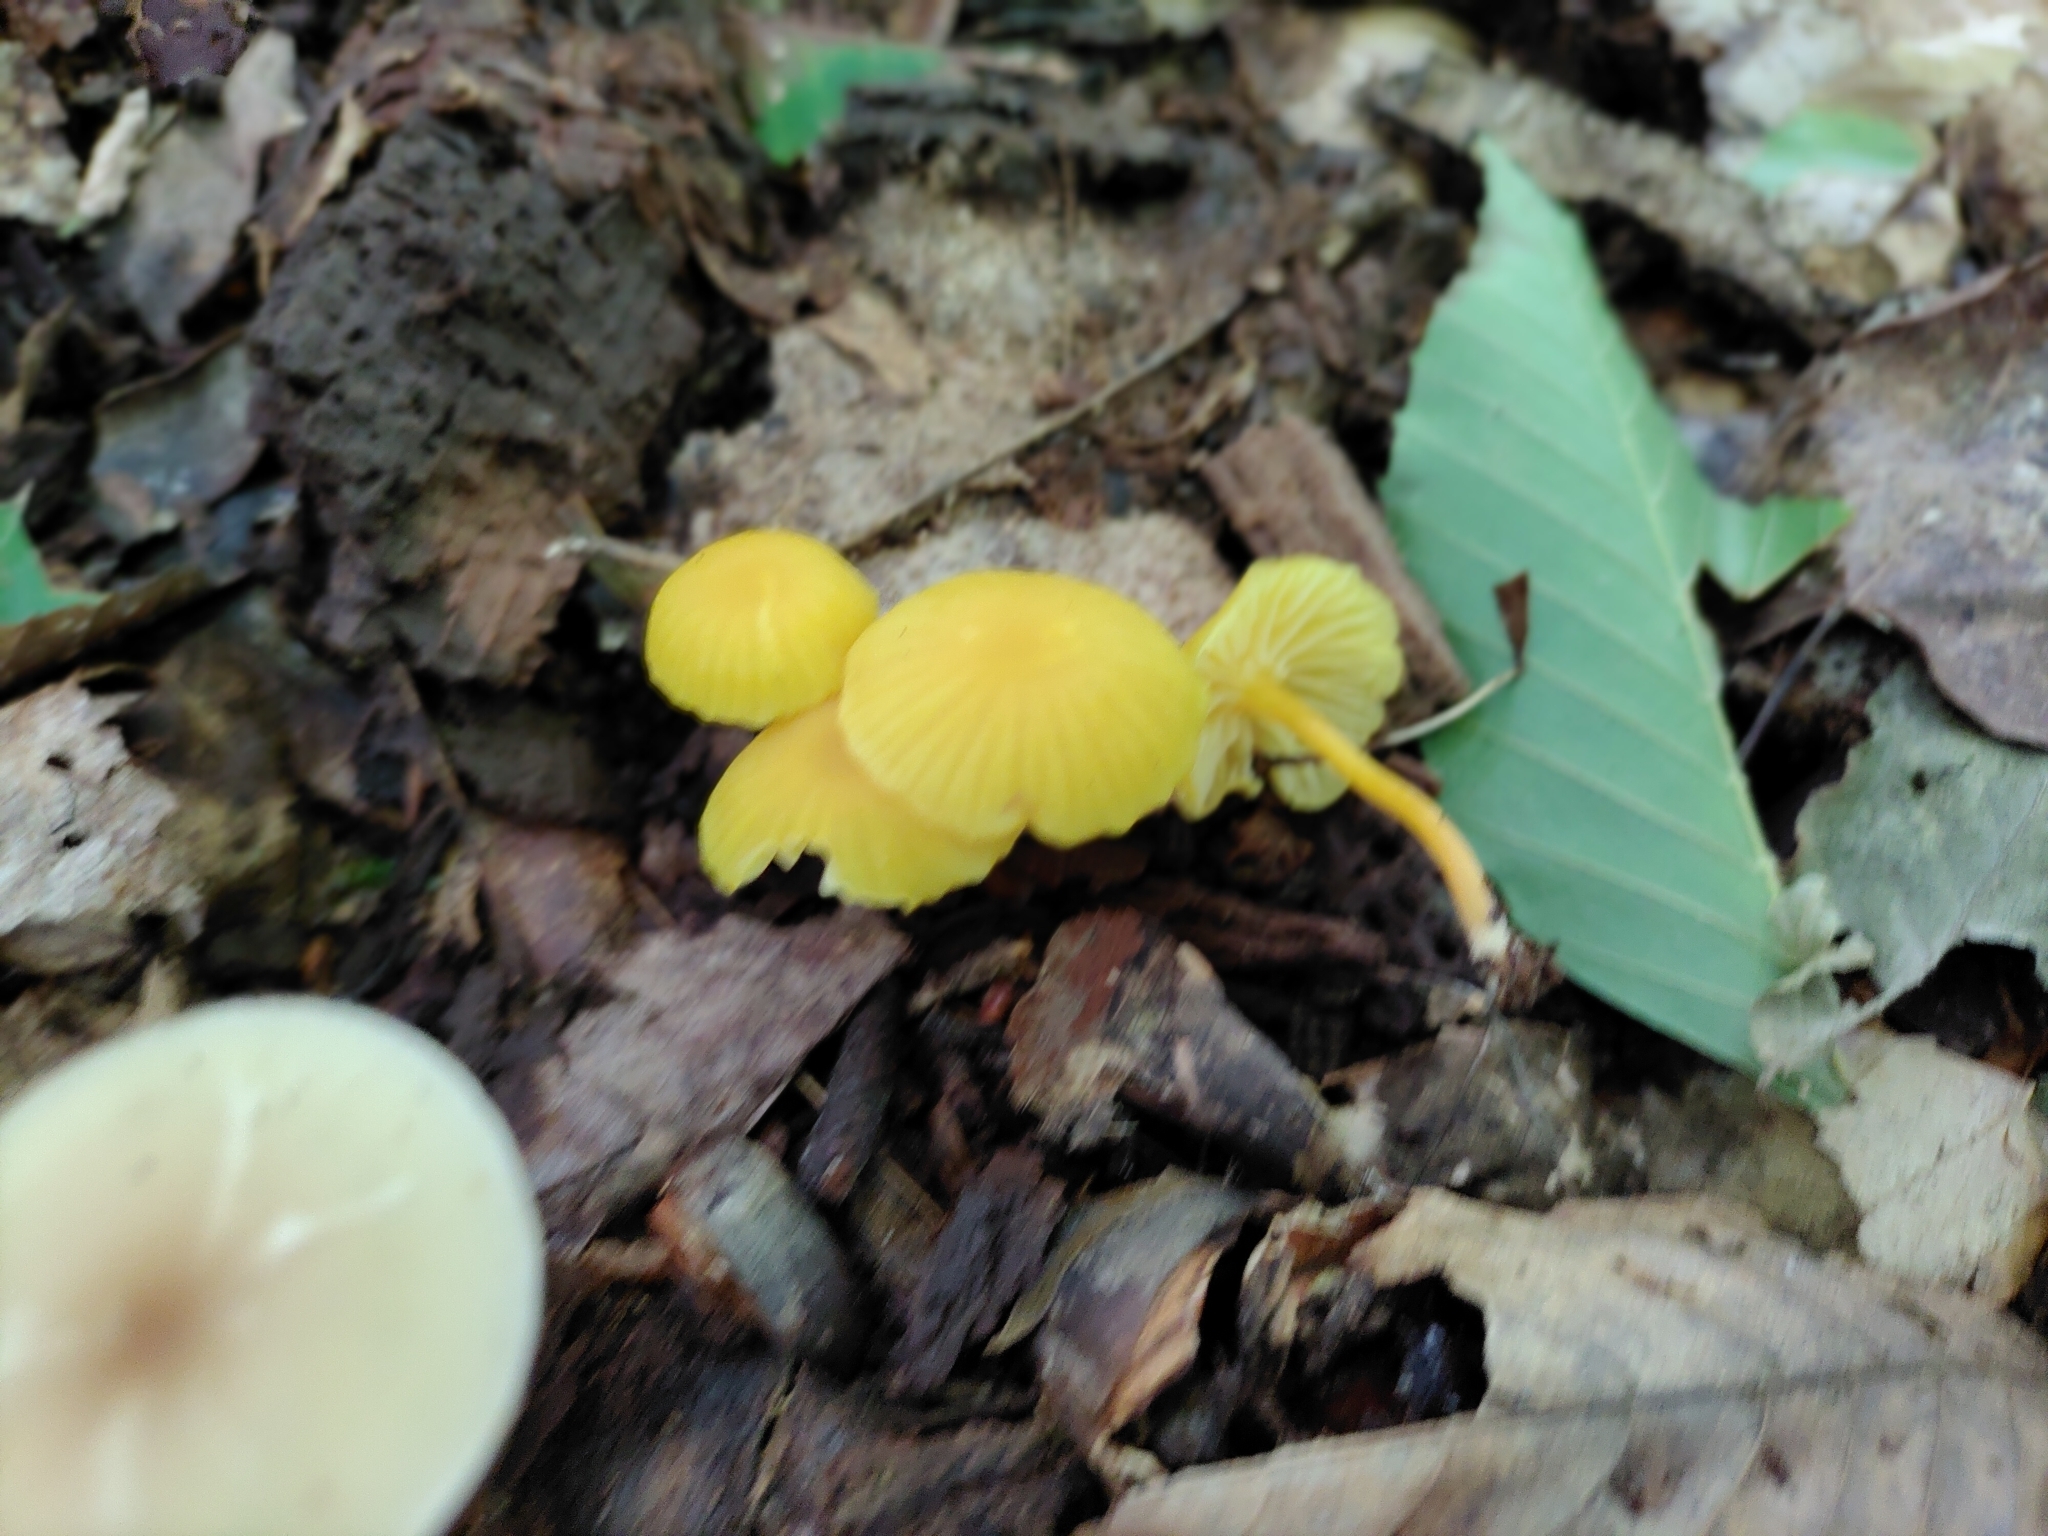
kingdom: Fungi
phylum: Basidiomycota
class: Agaricomycetes
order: Agaricales
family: Hygrophoraceae
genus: Hygrocybe
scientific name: Hygrocybe ceracea
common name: Butter waxcap
